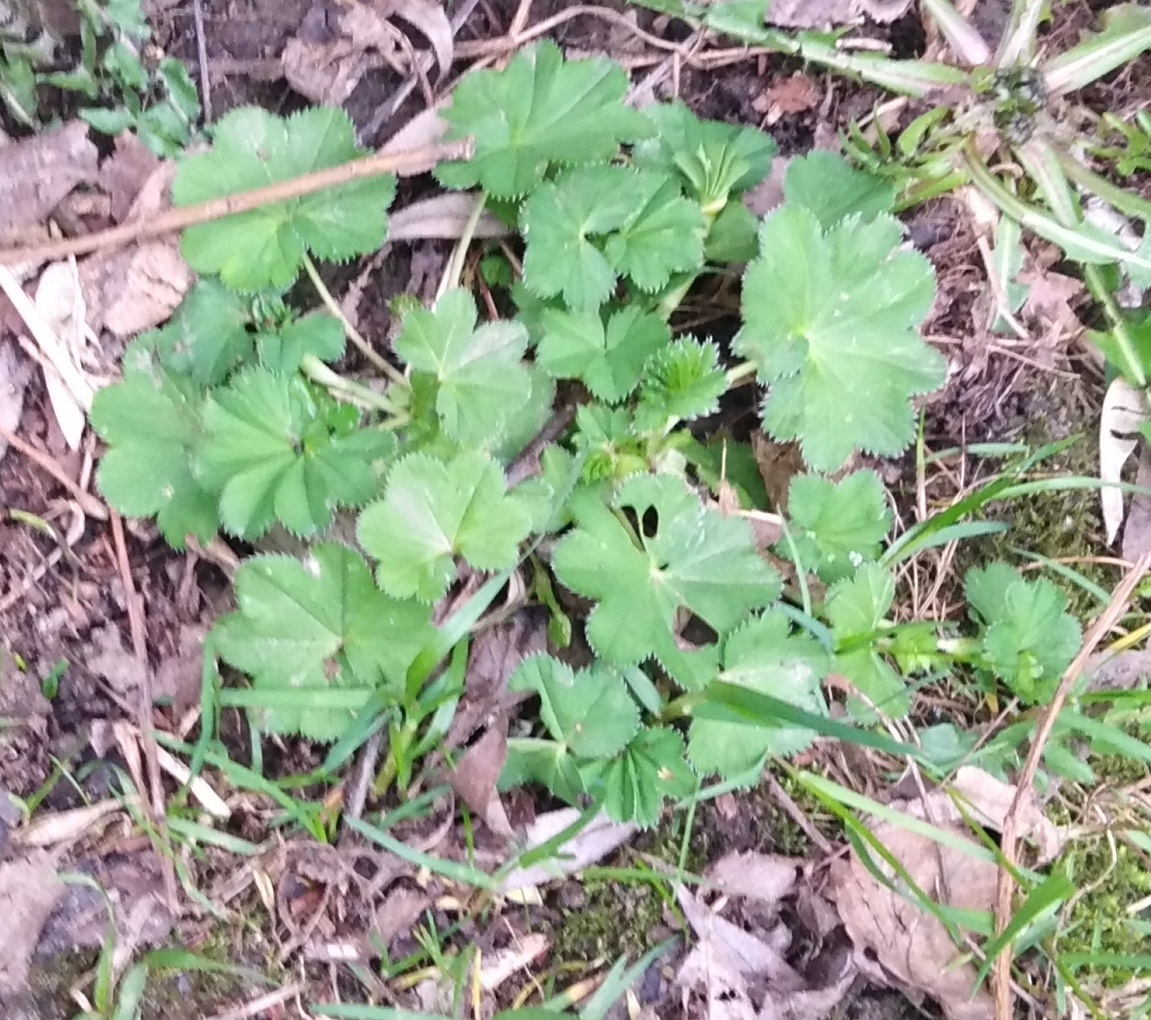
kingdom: Plantae
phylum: Tracheophyta
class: Magnoliopsida
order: Rosales
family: Rosaceae
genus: Alchemilla
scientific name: Alchemilla
